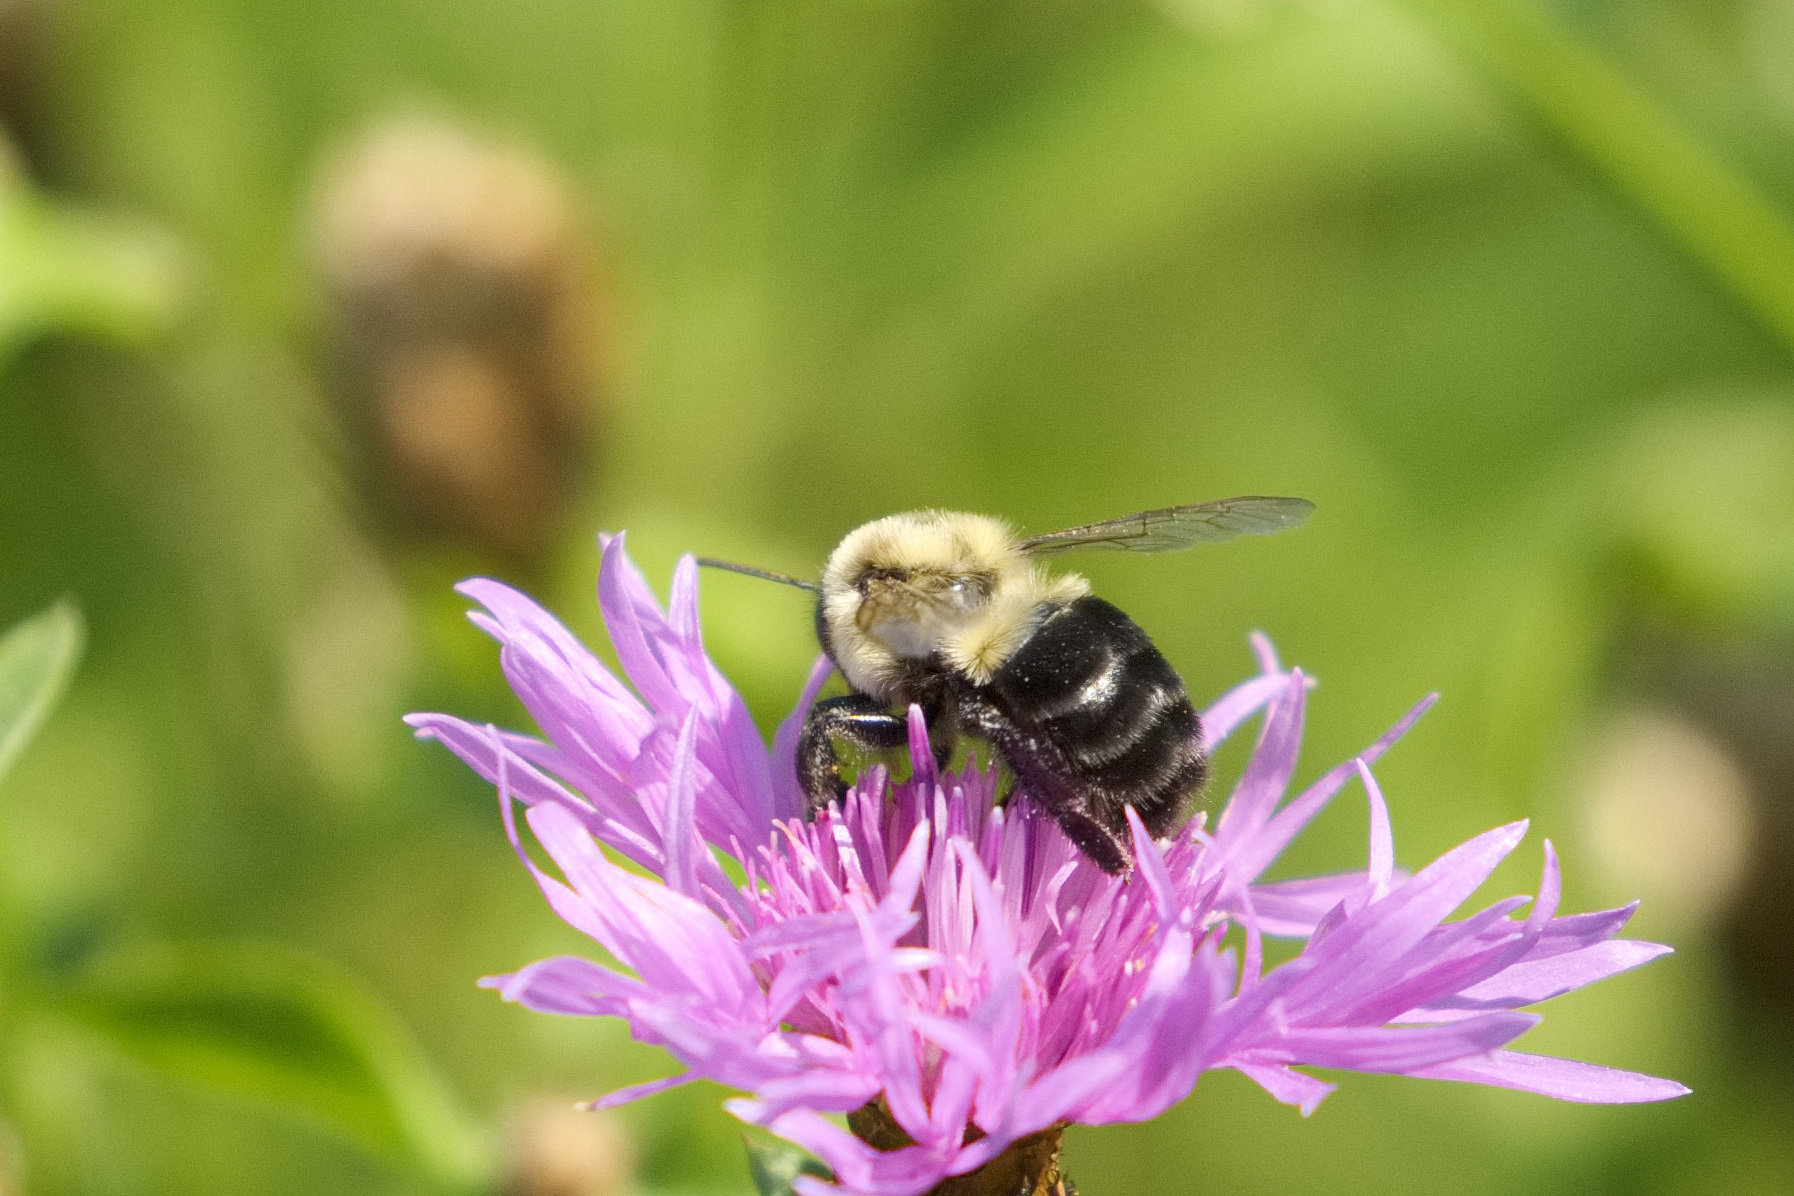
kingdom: Animalia
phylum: Arthropoda
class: Insecta
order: Hymenoptera
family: Apidae
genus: Bombus
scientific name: Bombus impatiens
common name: Common eastern bumble bee
